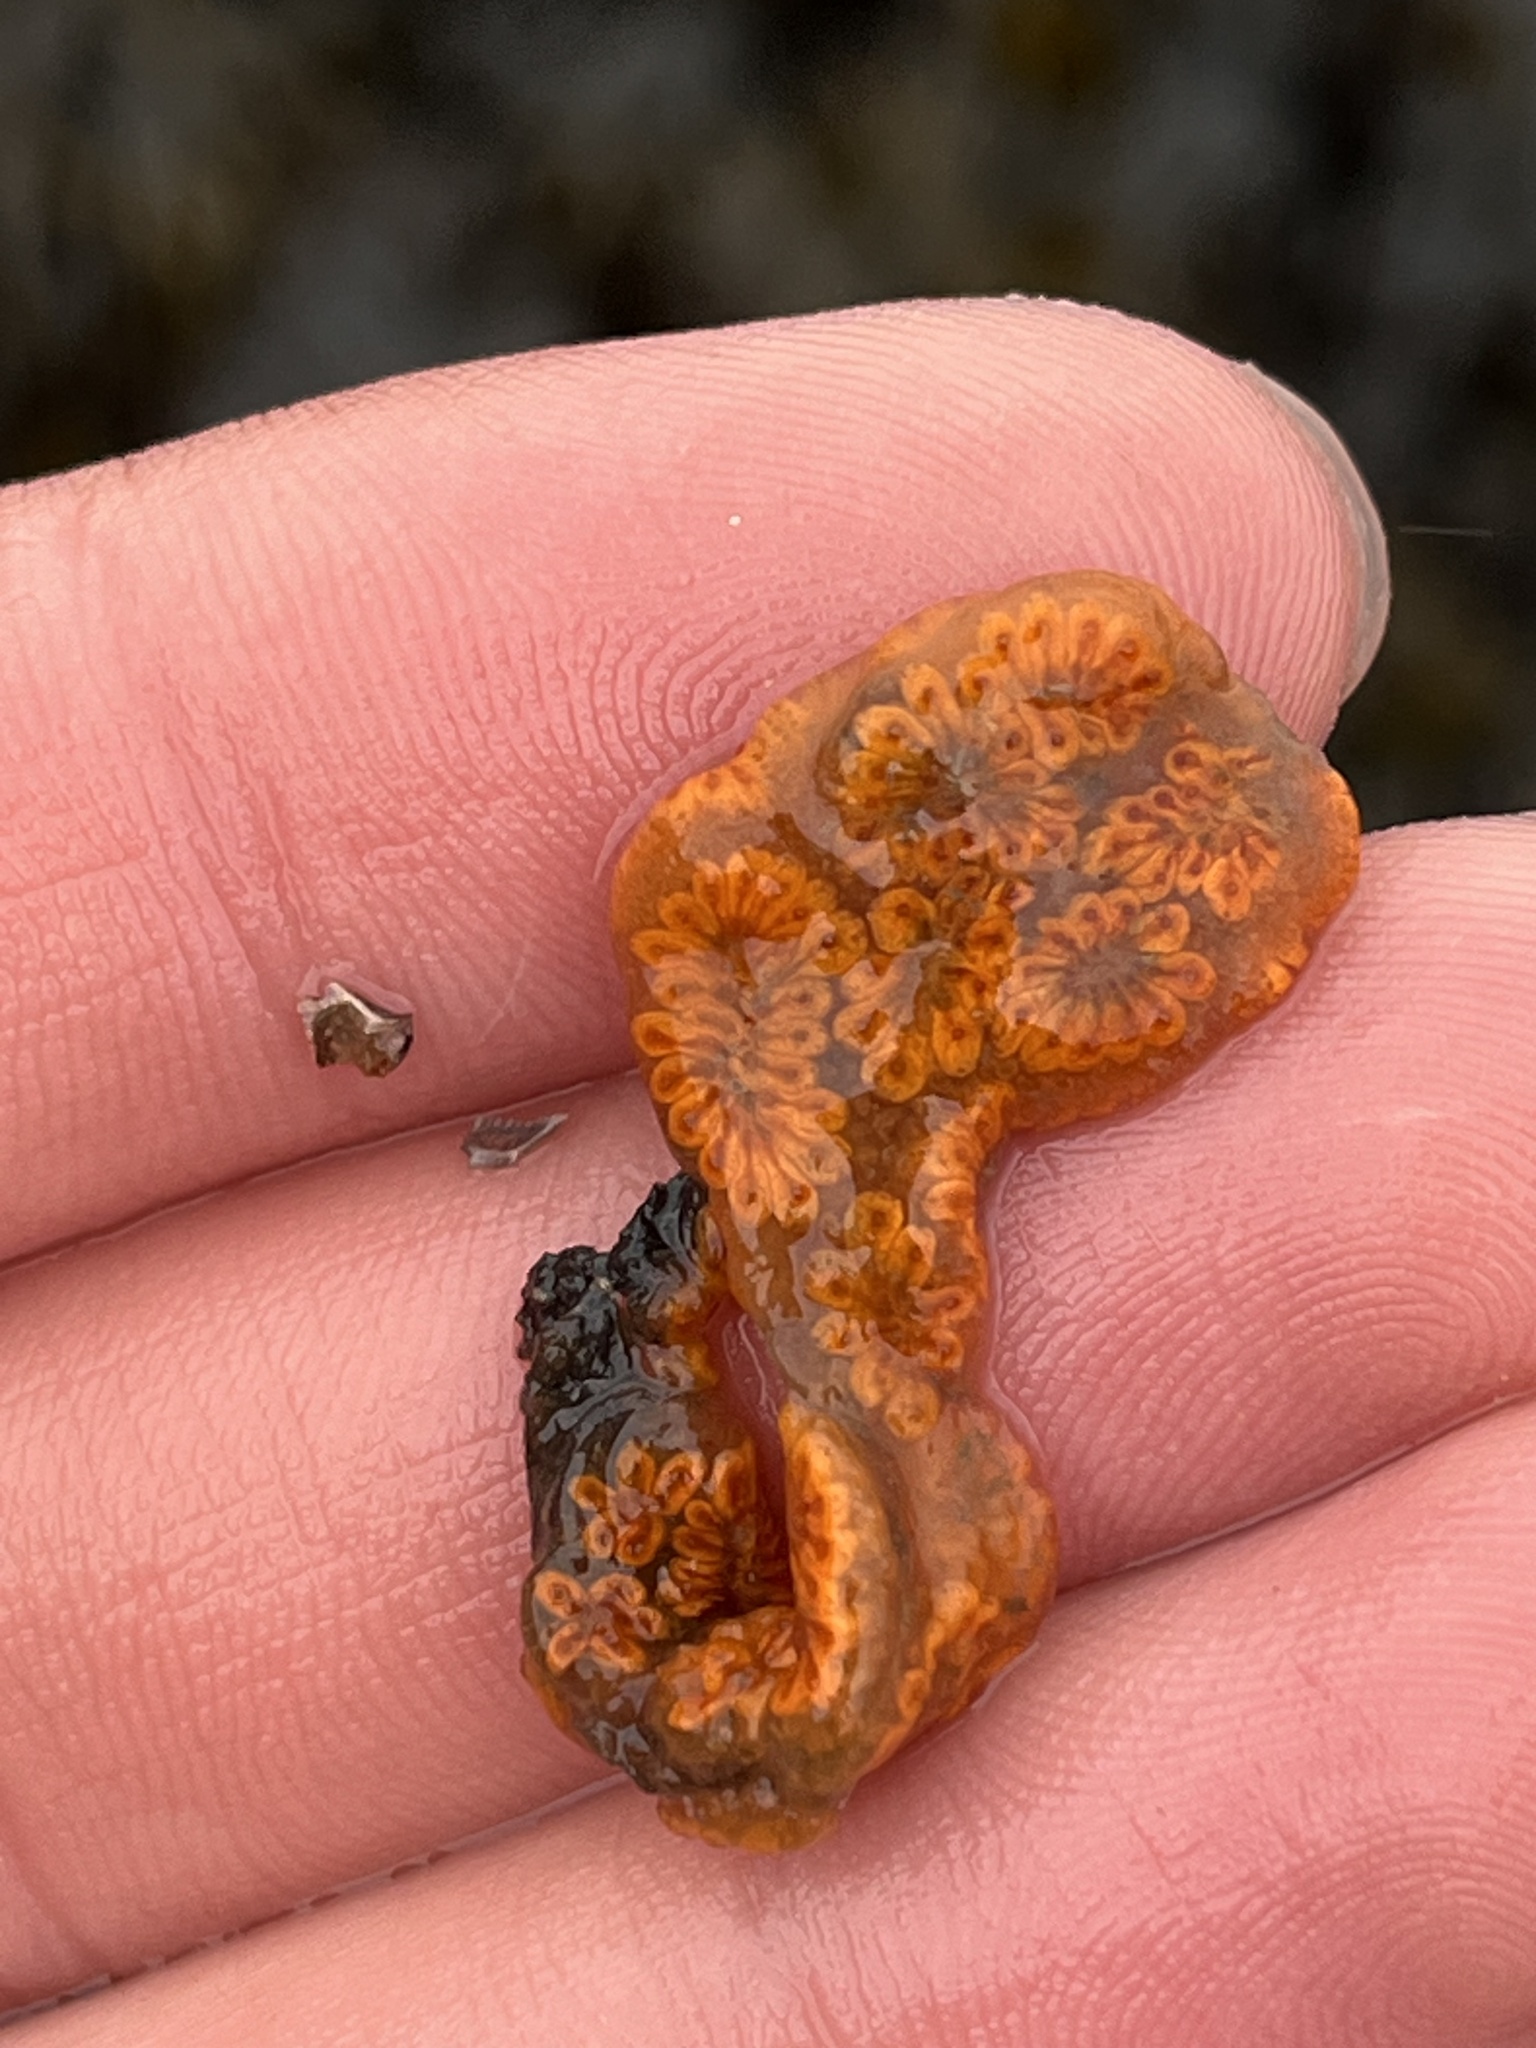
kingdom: Animalia
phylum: Chordata
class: Ascidiacea
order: Stolidobranchia
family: Styelidae
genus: Botryllus
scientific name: Botryllus schlosseri
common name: Golden star tunicate
